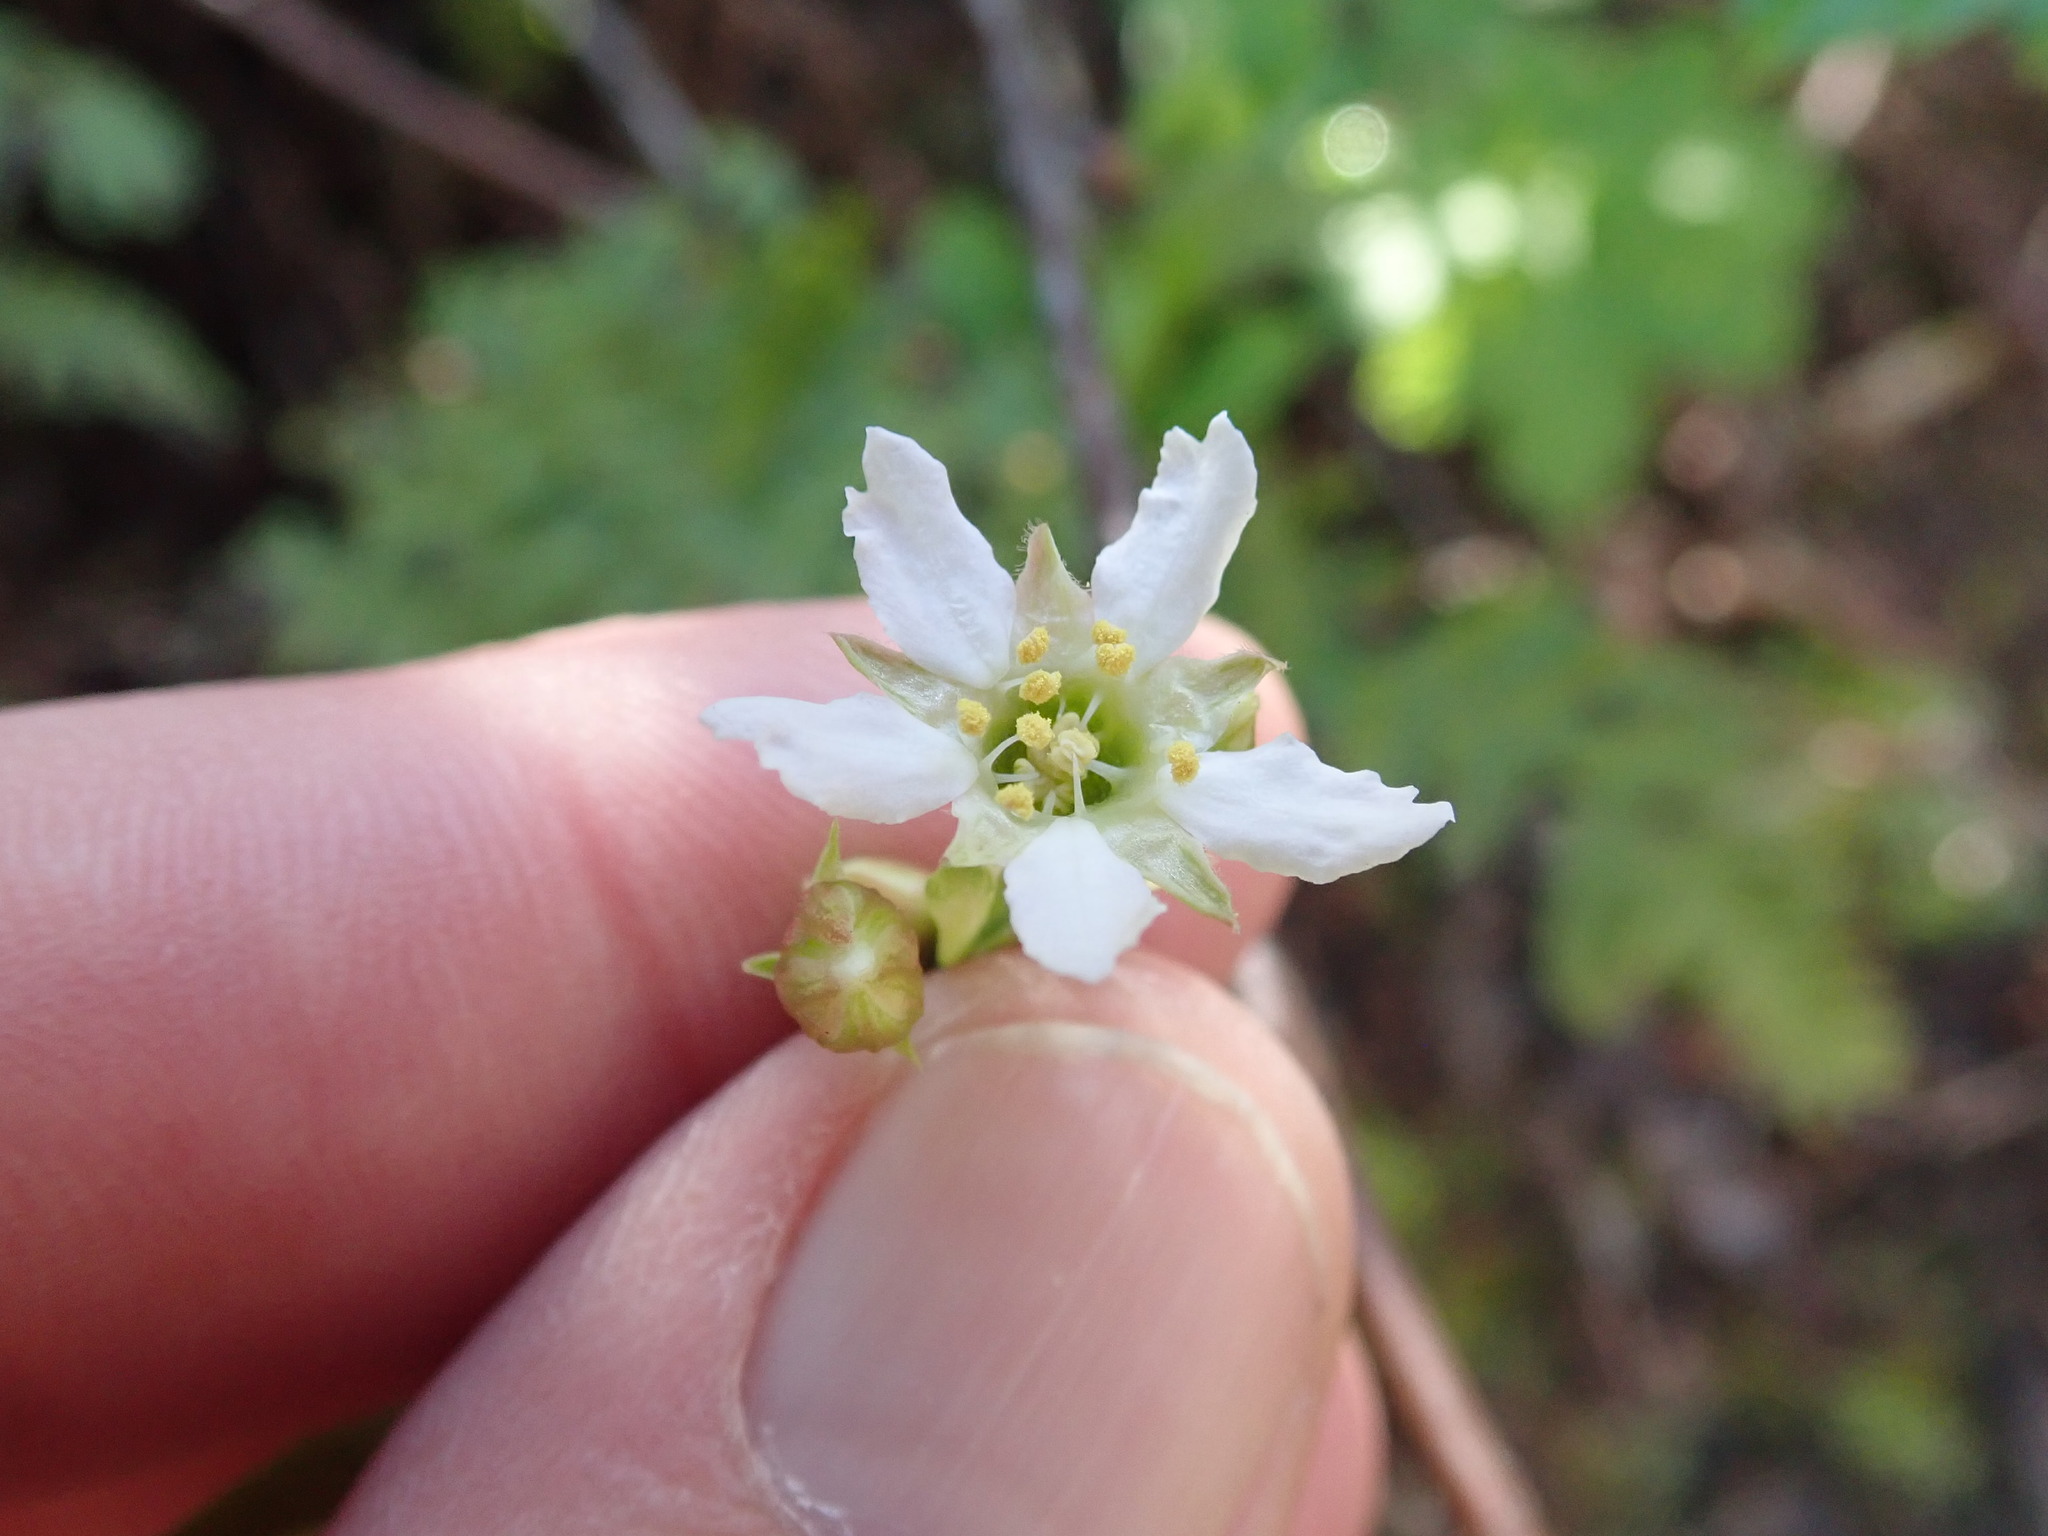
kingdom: Plantae
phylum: Tracheophyta
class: Magnoliopsida
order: Rosales
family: Rosaceae
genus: Oemleria
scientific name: Oemleria cerasiformis
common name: Osoberry
